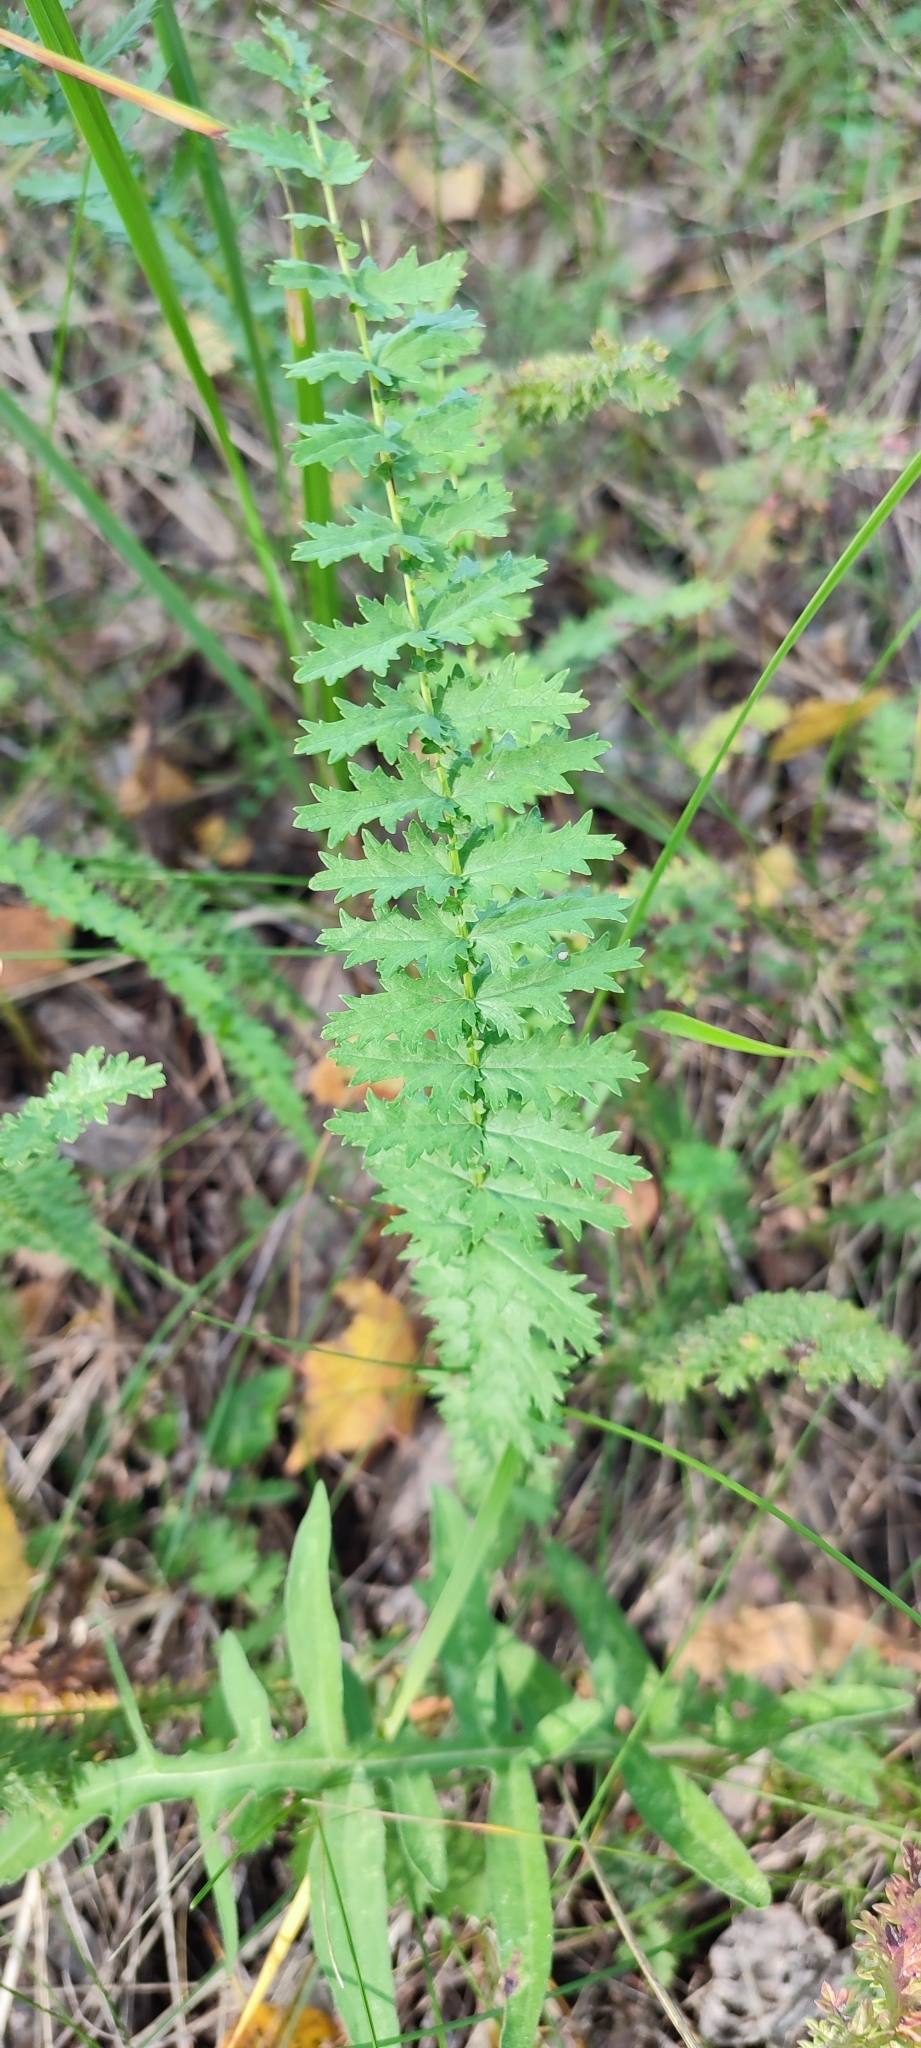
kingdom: Plantae
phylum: Tracheophyta
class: Magnoliopsida
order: Rosales
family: Rosaceae
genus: Filipendula
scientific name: Filipendula vulgaris
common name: Dropwort
